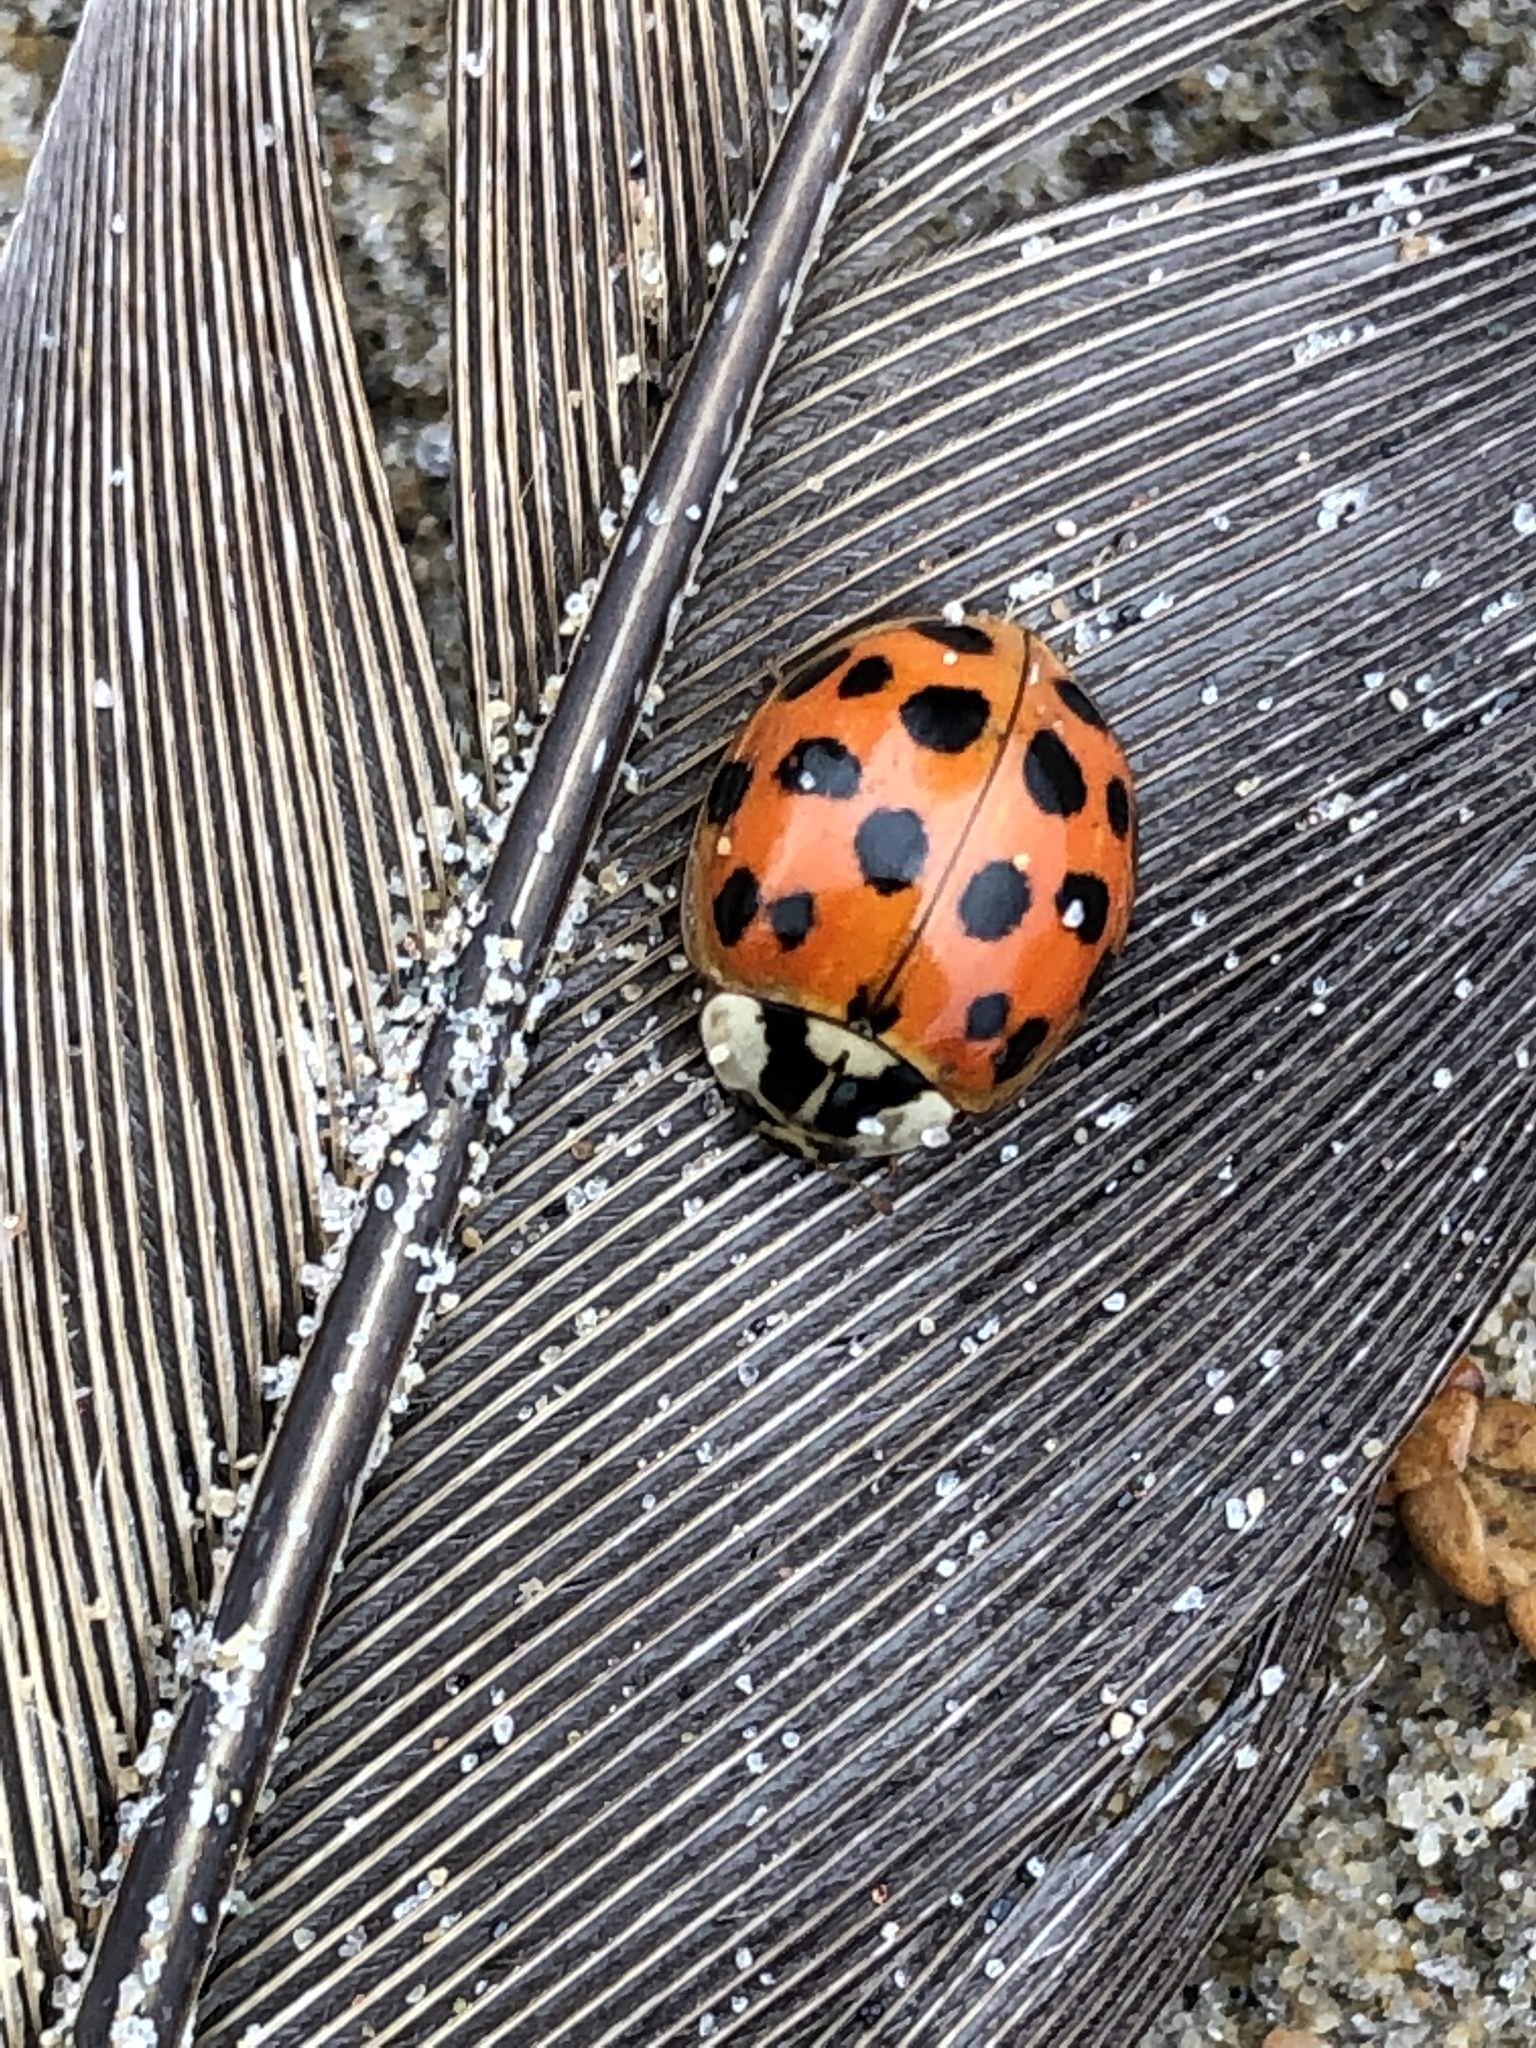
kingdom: Animalia
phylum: Arthropoda
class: Insecta
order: Coleoptera
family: Coccinellidae
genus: Harmonia
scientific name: Harmonia axyridis
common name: Harlequin ladybird
